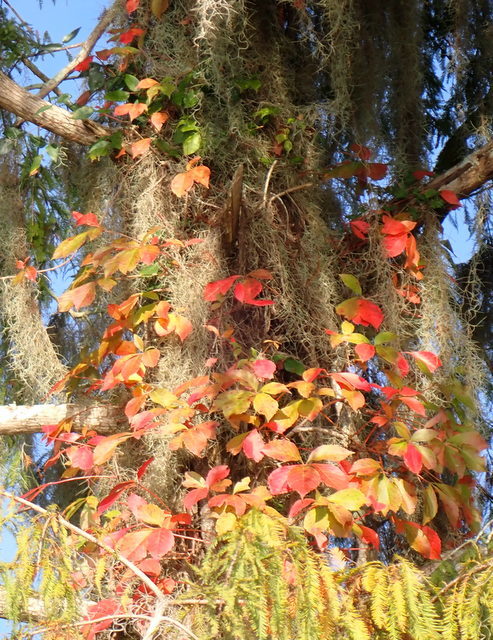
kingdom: Plantae
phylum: Tracheophyta
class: Magnoliopsida
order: Vitales
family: Vitaceae
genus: Parthenocissus
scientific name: Parthenocissus quinquefolia
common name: Virginia-creeper
